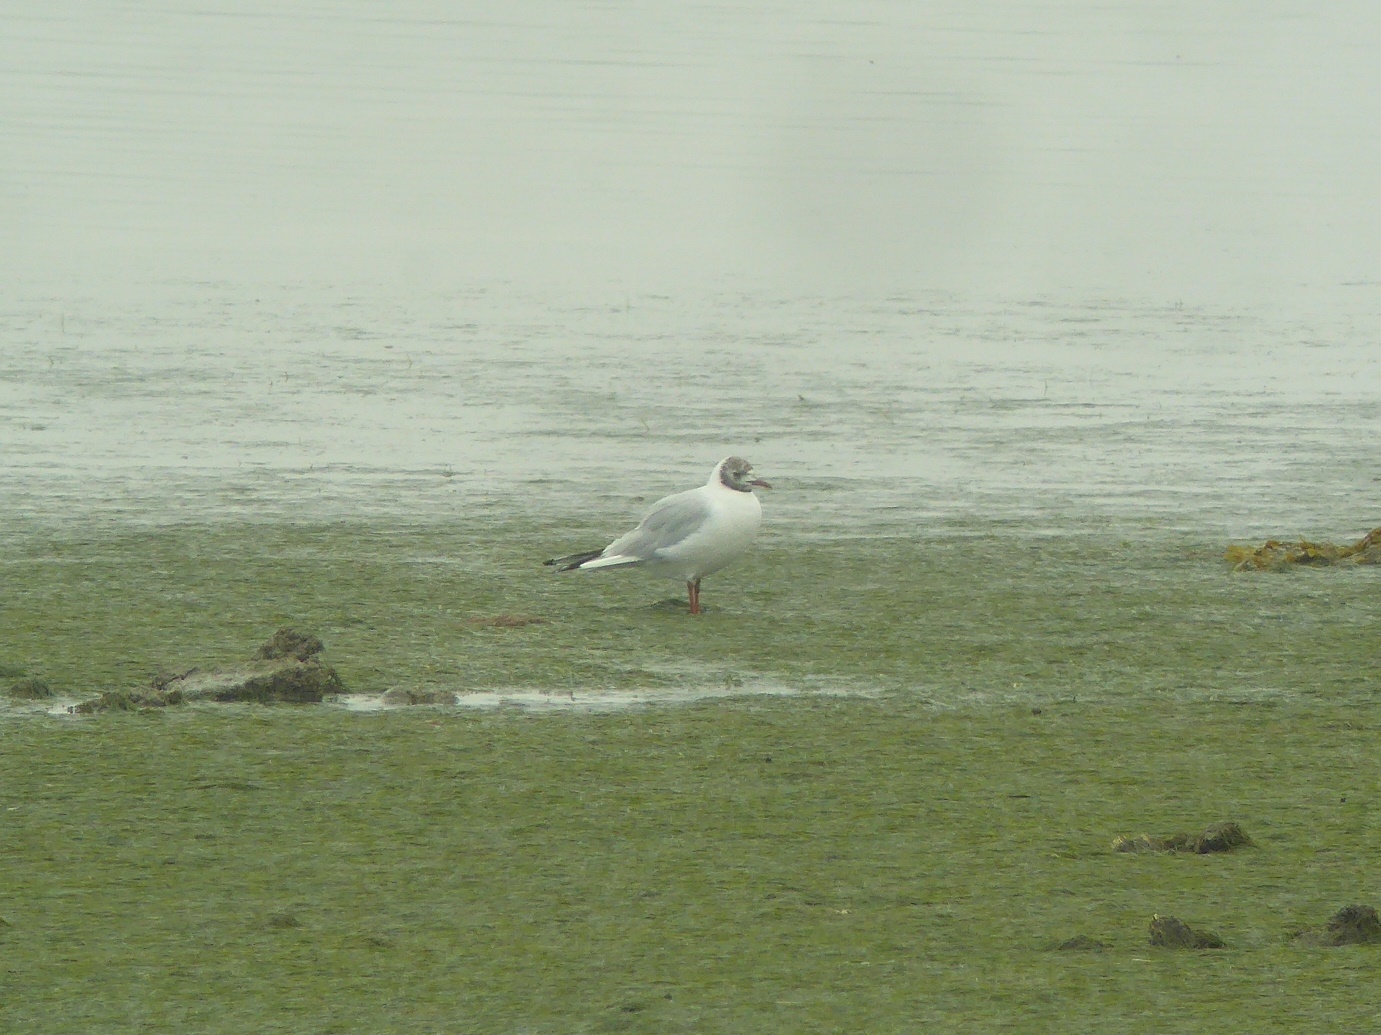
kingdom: Animalia
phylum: Chordata
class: Aves
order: Charadriiformes
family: Laridae
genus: Chroicocephalus
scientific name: Chroicocephalus ridibundus
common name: Black-headed gull
